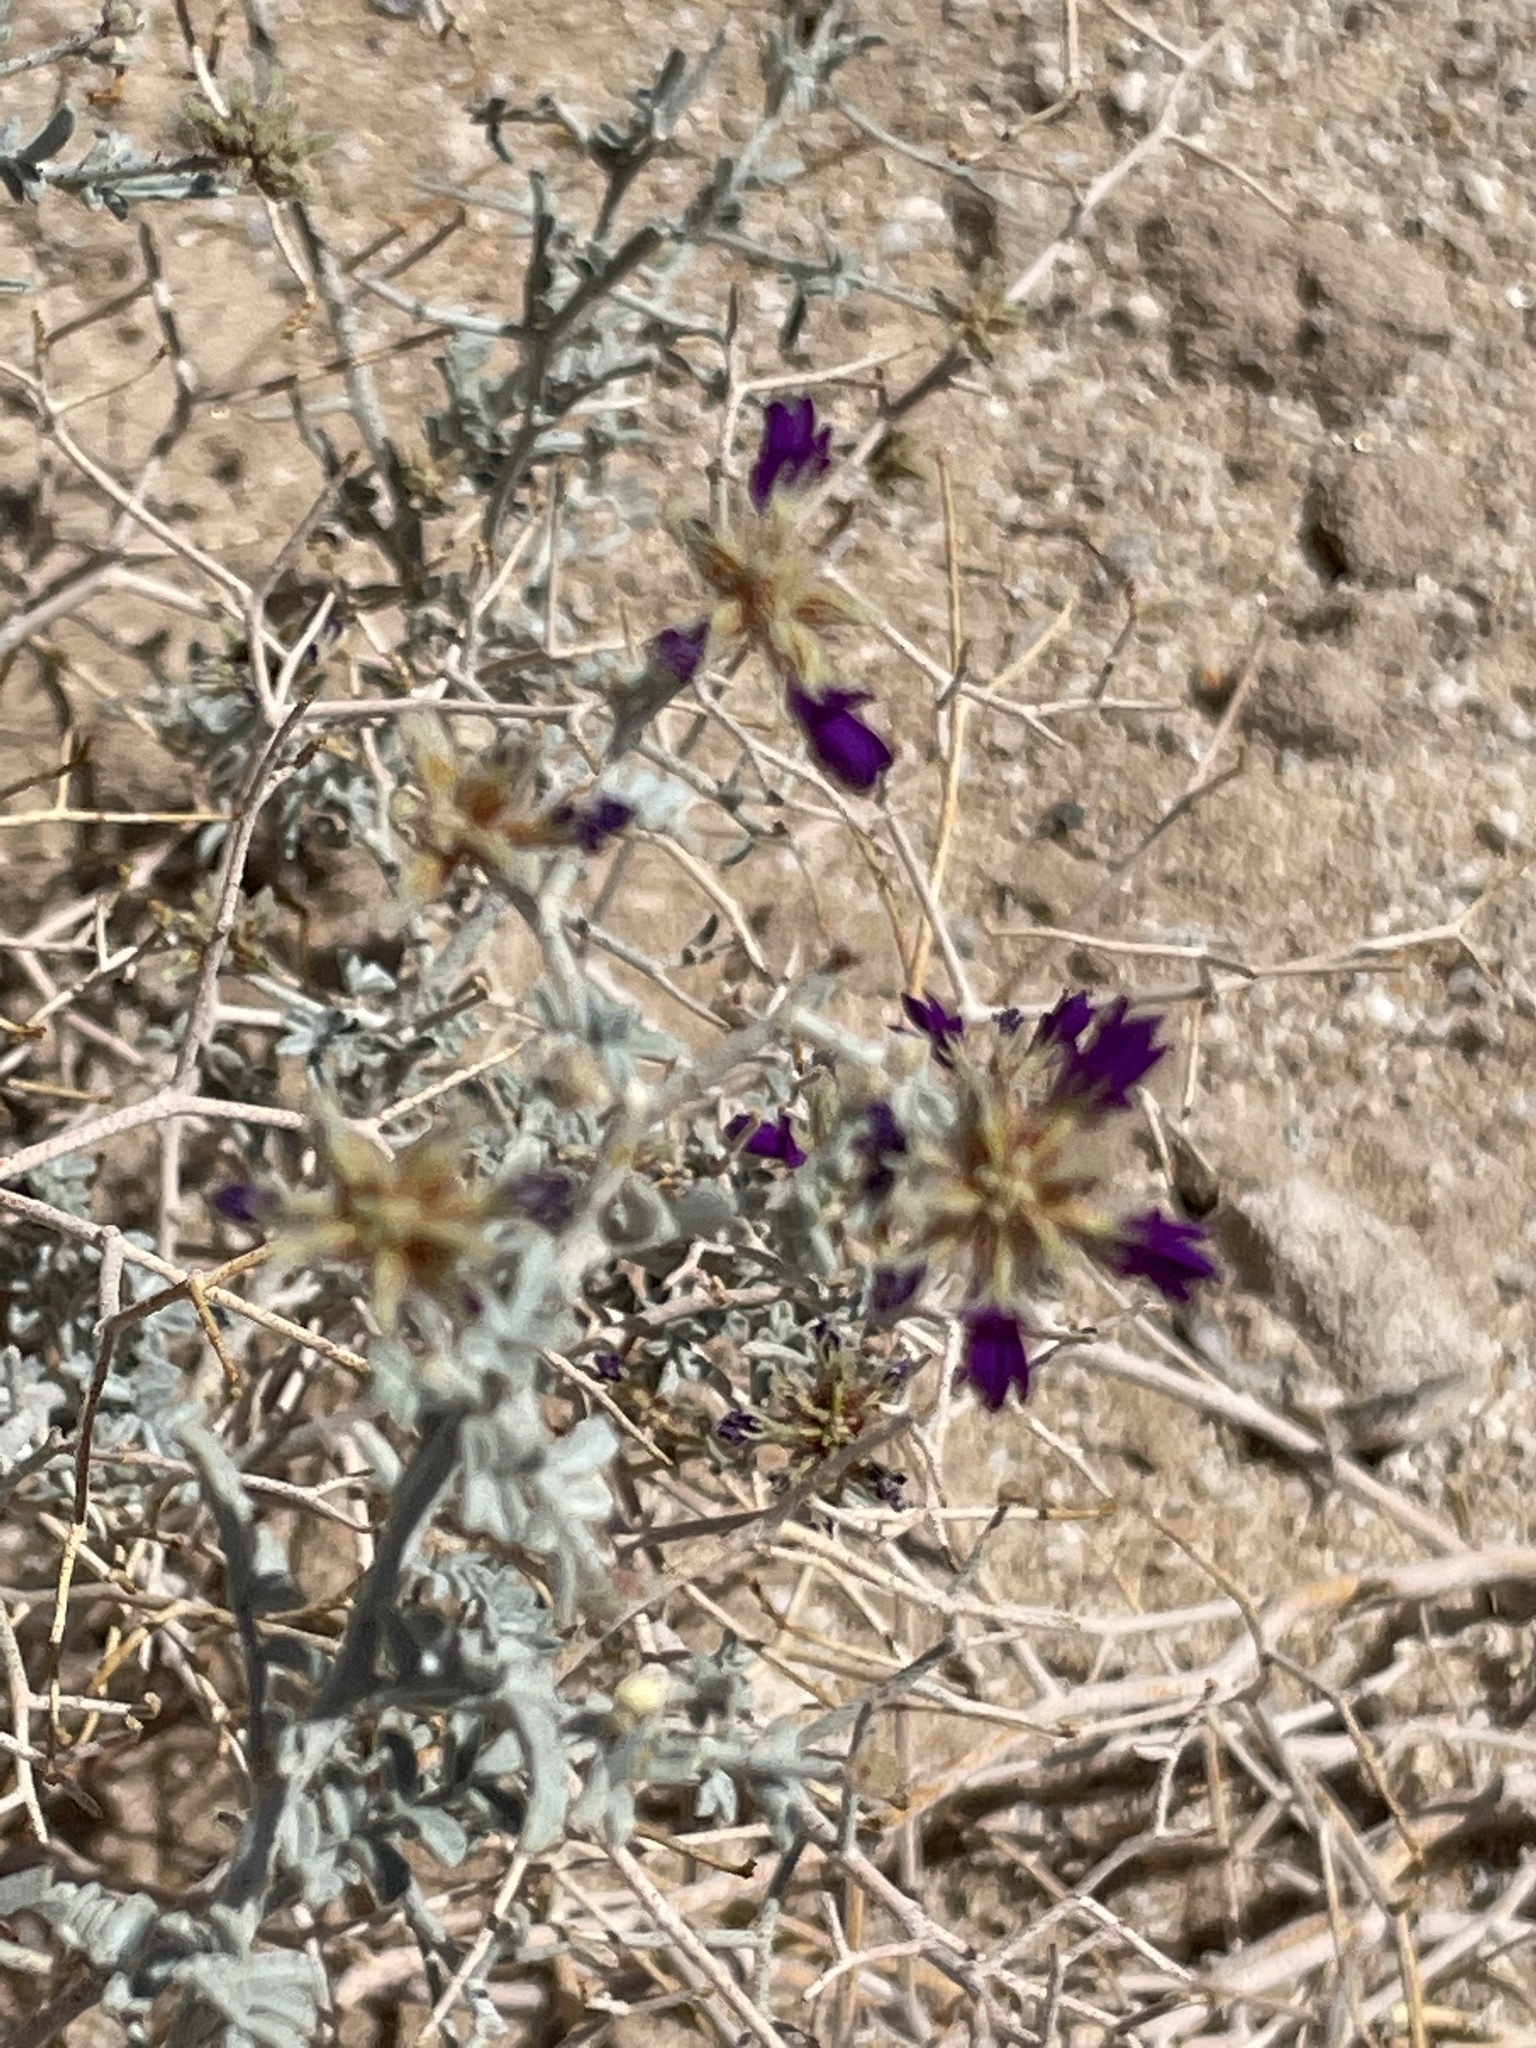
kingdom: Plantae
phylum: Tracheophyta
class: Magnoliopsida
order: Fabales
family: Fabaceae
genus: Psorothamnus
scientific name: Psorothamnus emoryi
